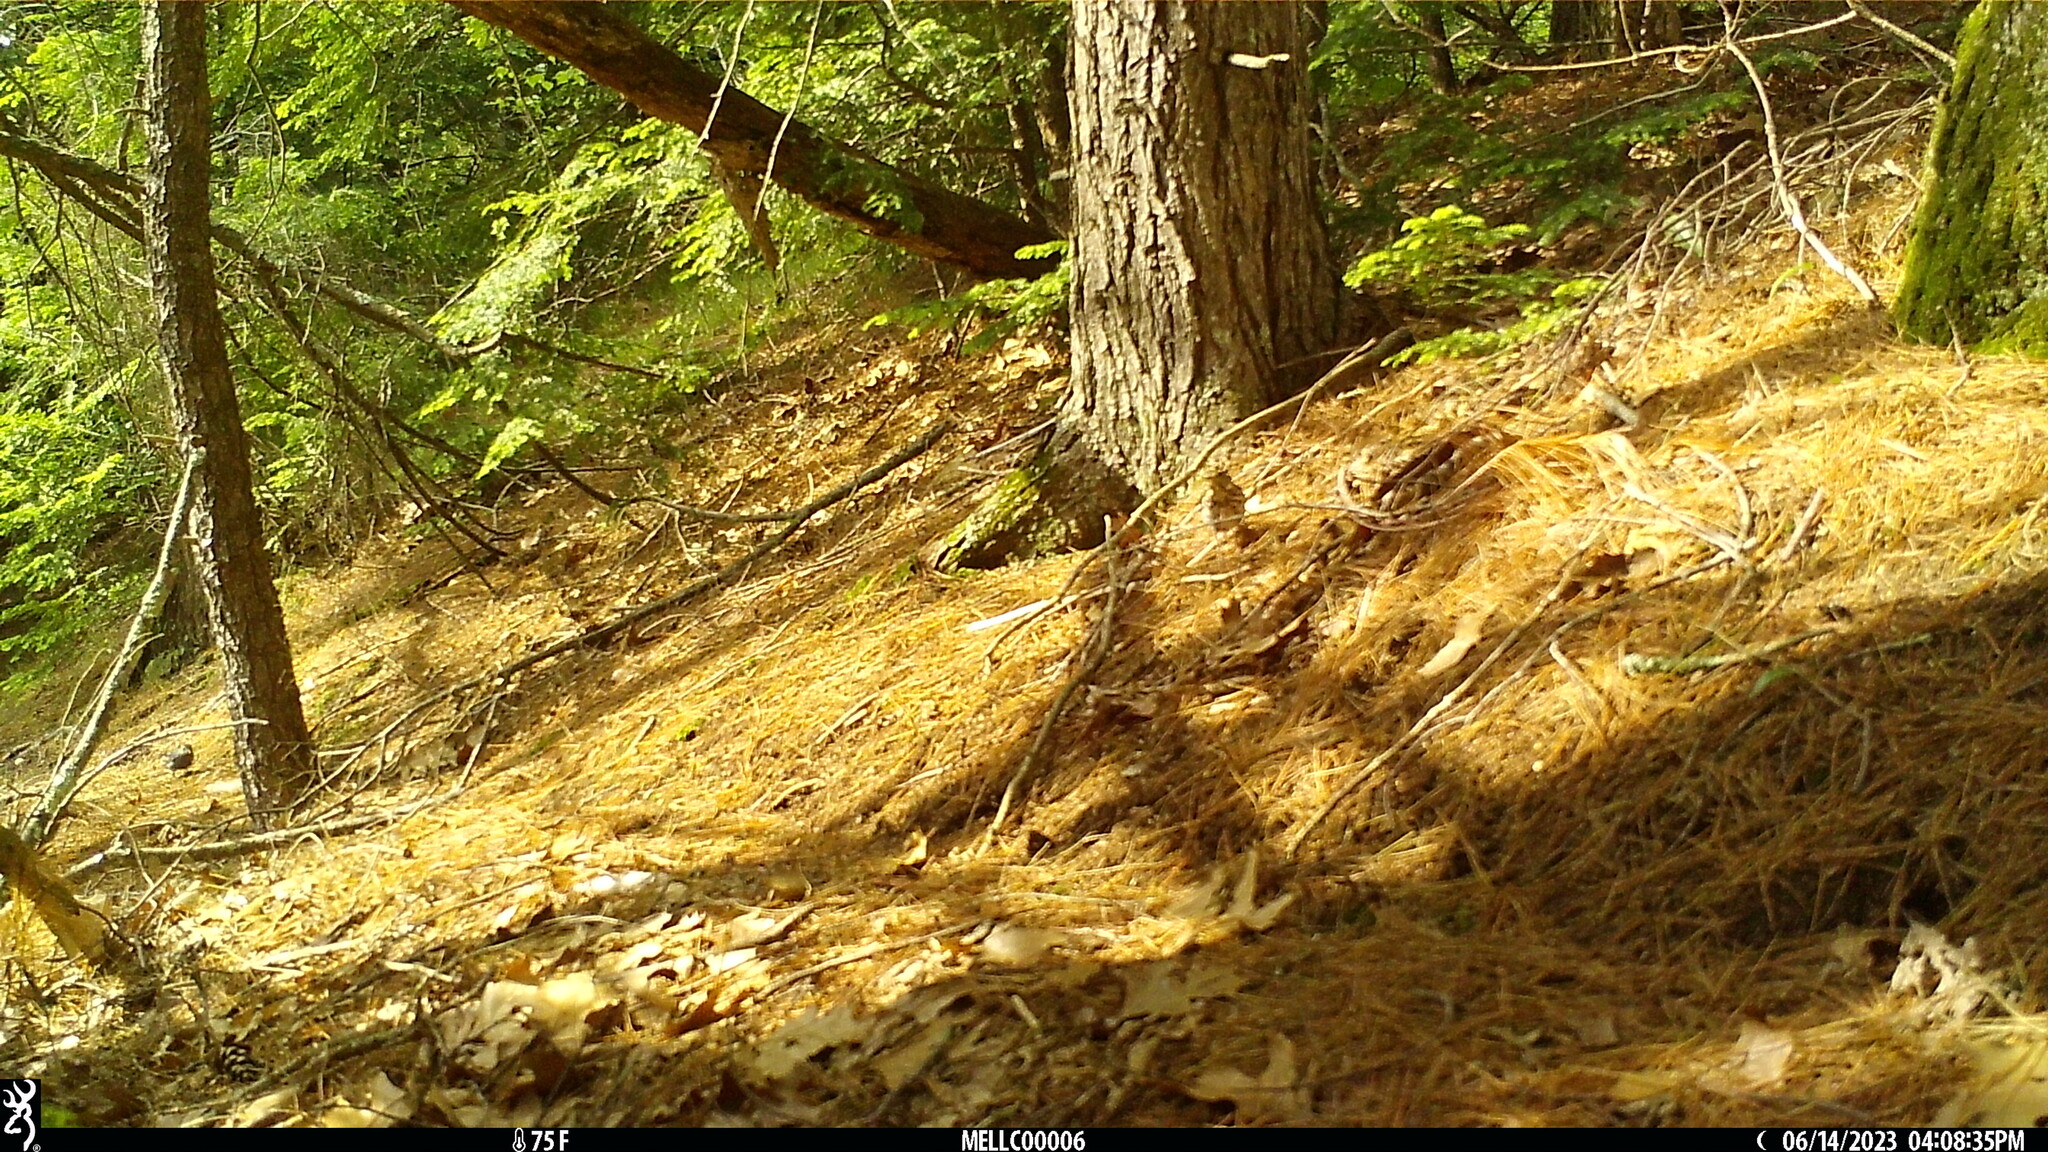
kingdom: Animalia
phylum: Chordata
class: Aves
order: Passeriformes
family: Mimidae
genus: Dumetella
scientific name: Dumetella carolinensis
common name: Gray catbird
